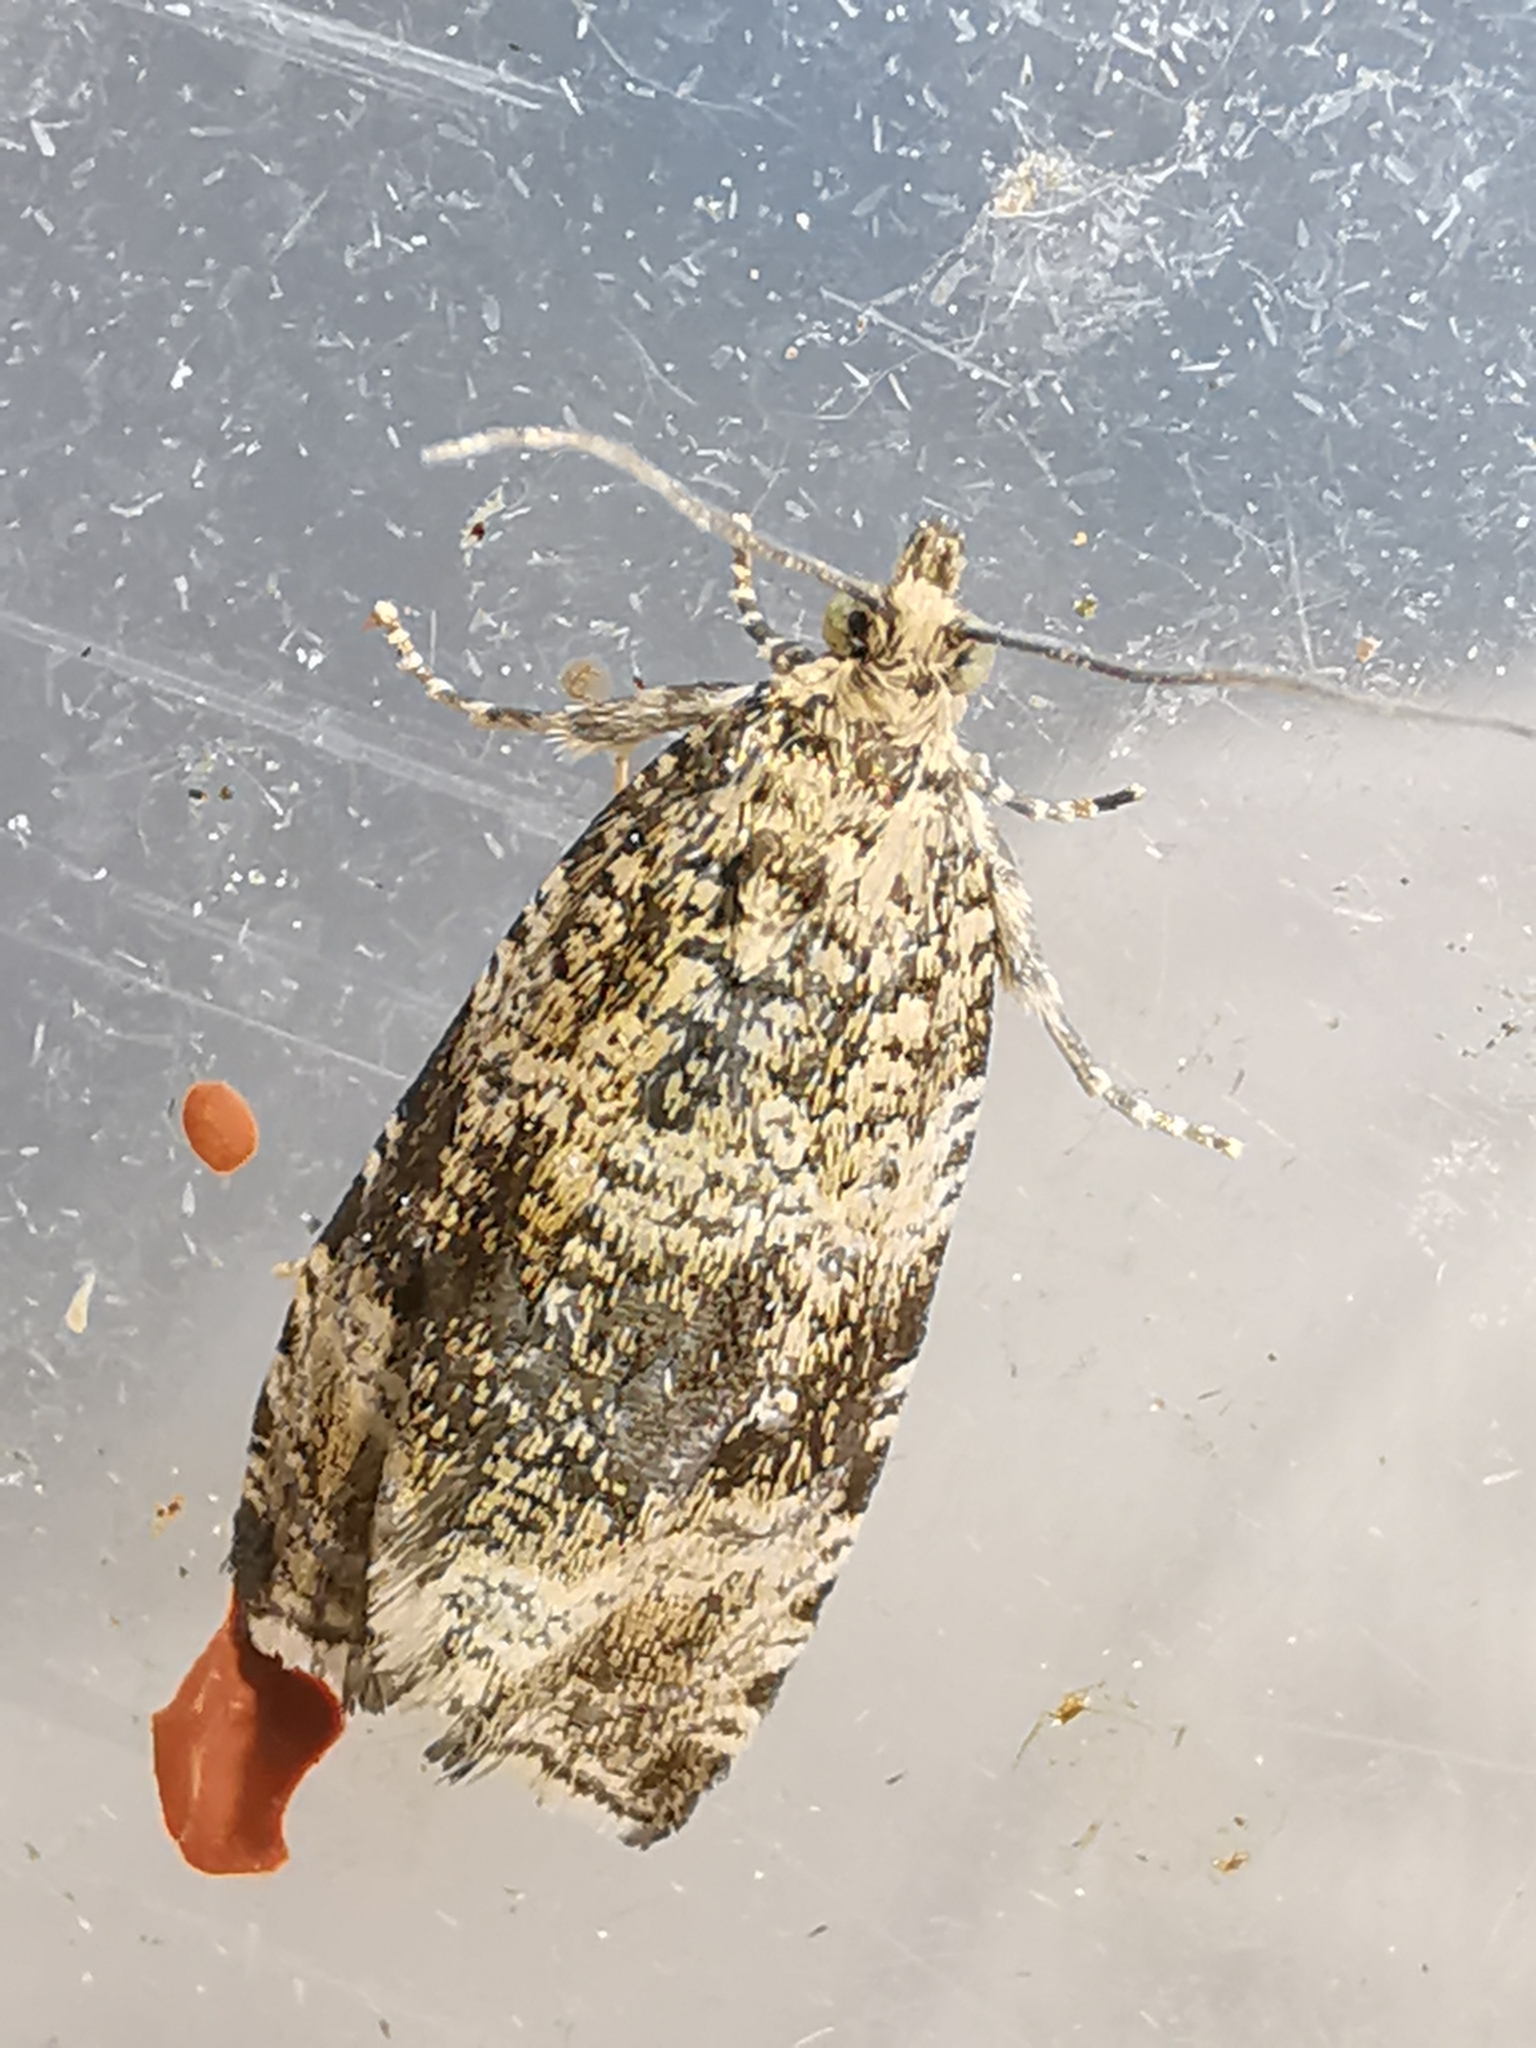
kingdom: Animalia
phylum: Arthropoda
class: Insecta
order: Lepidoptera
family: Tortricidae
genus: Syricoris
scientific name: Syricoris lacunana
